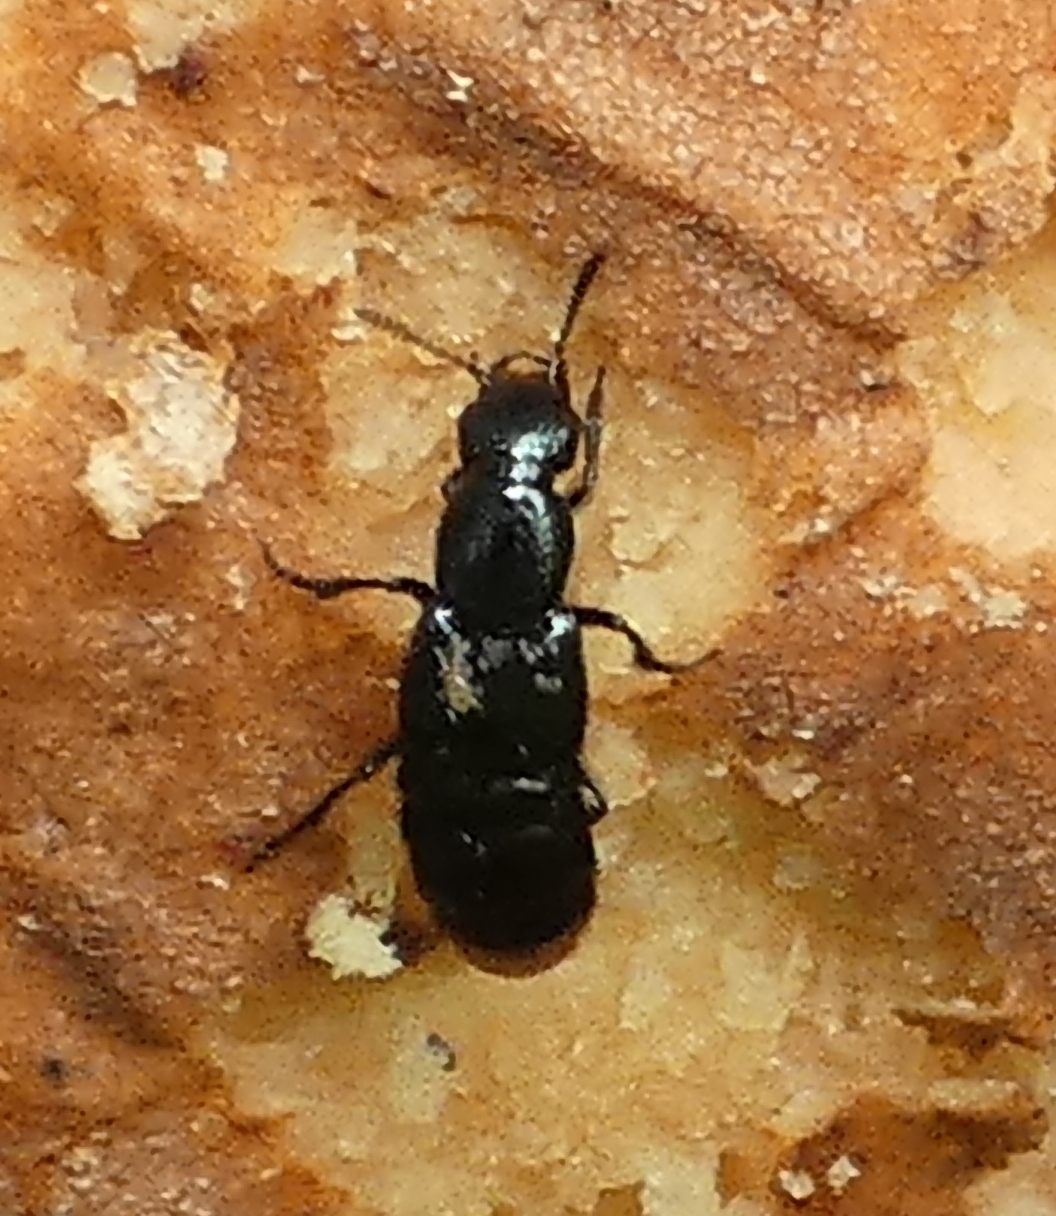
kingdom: Animalia
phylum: Arthropoda
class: Insecta
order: Coleoptera
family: Staphylinidae
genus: Xenopygus
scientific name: Xenopygus analis
